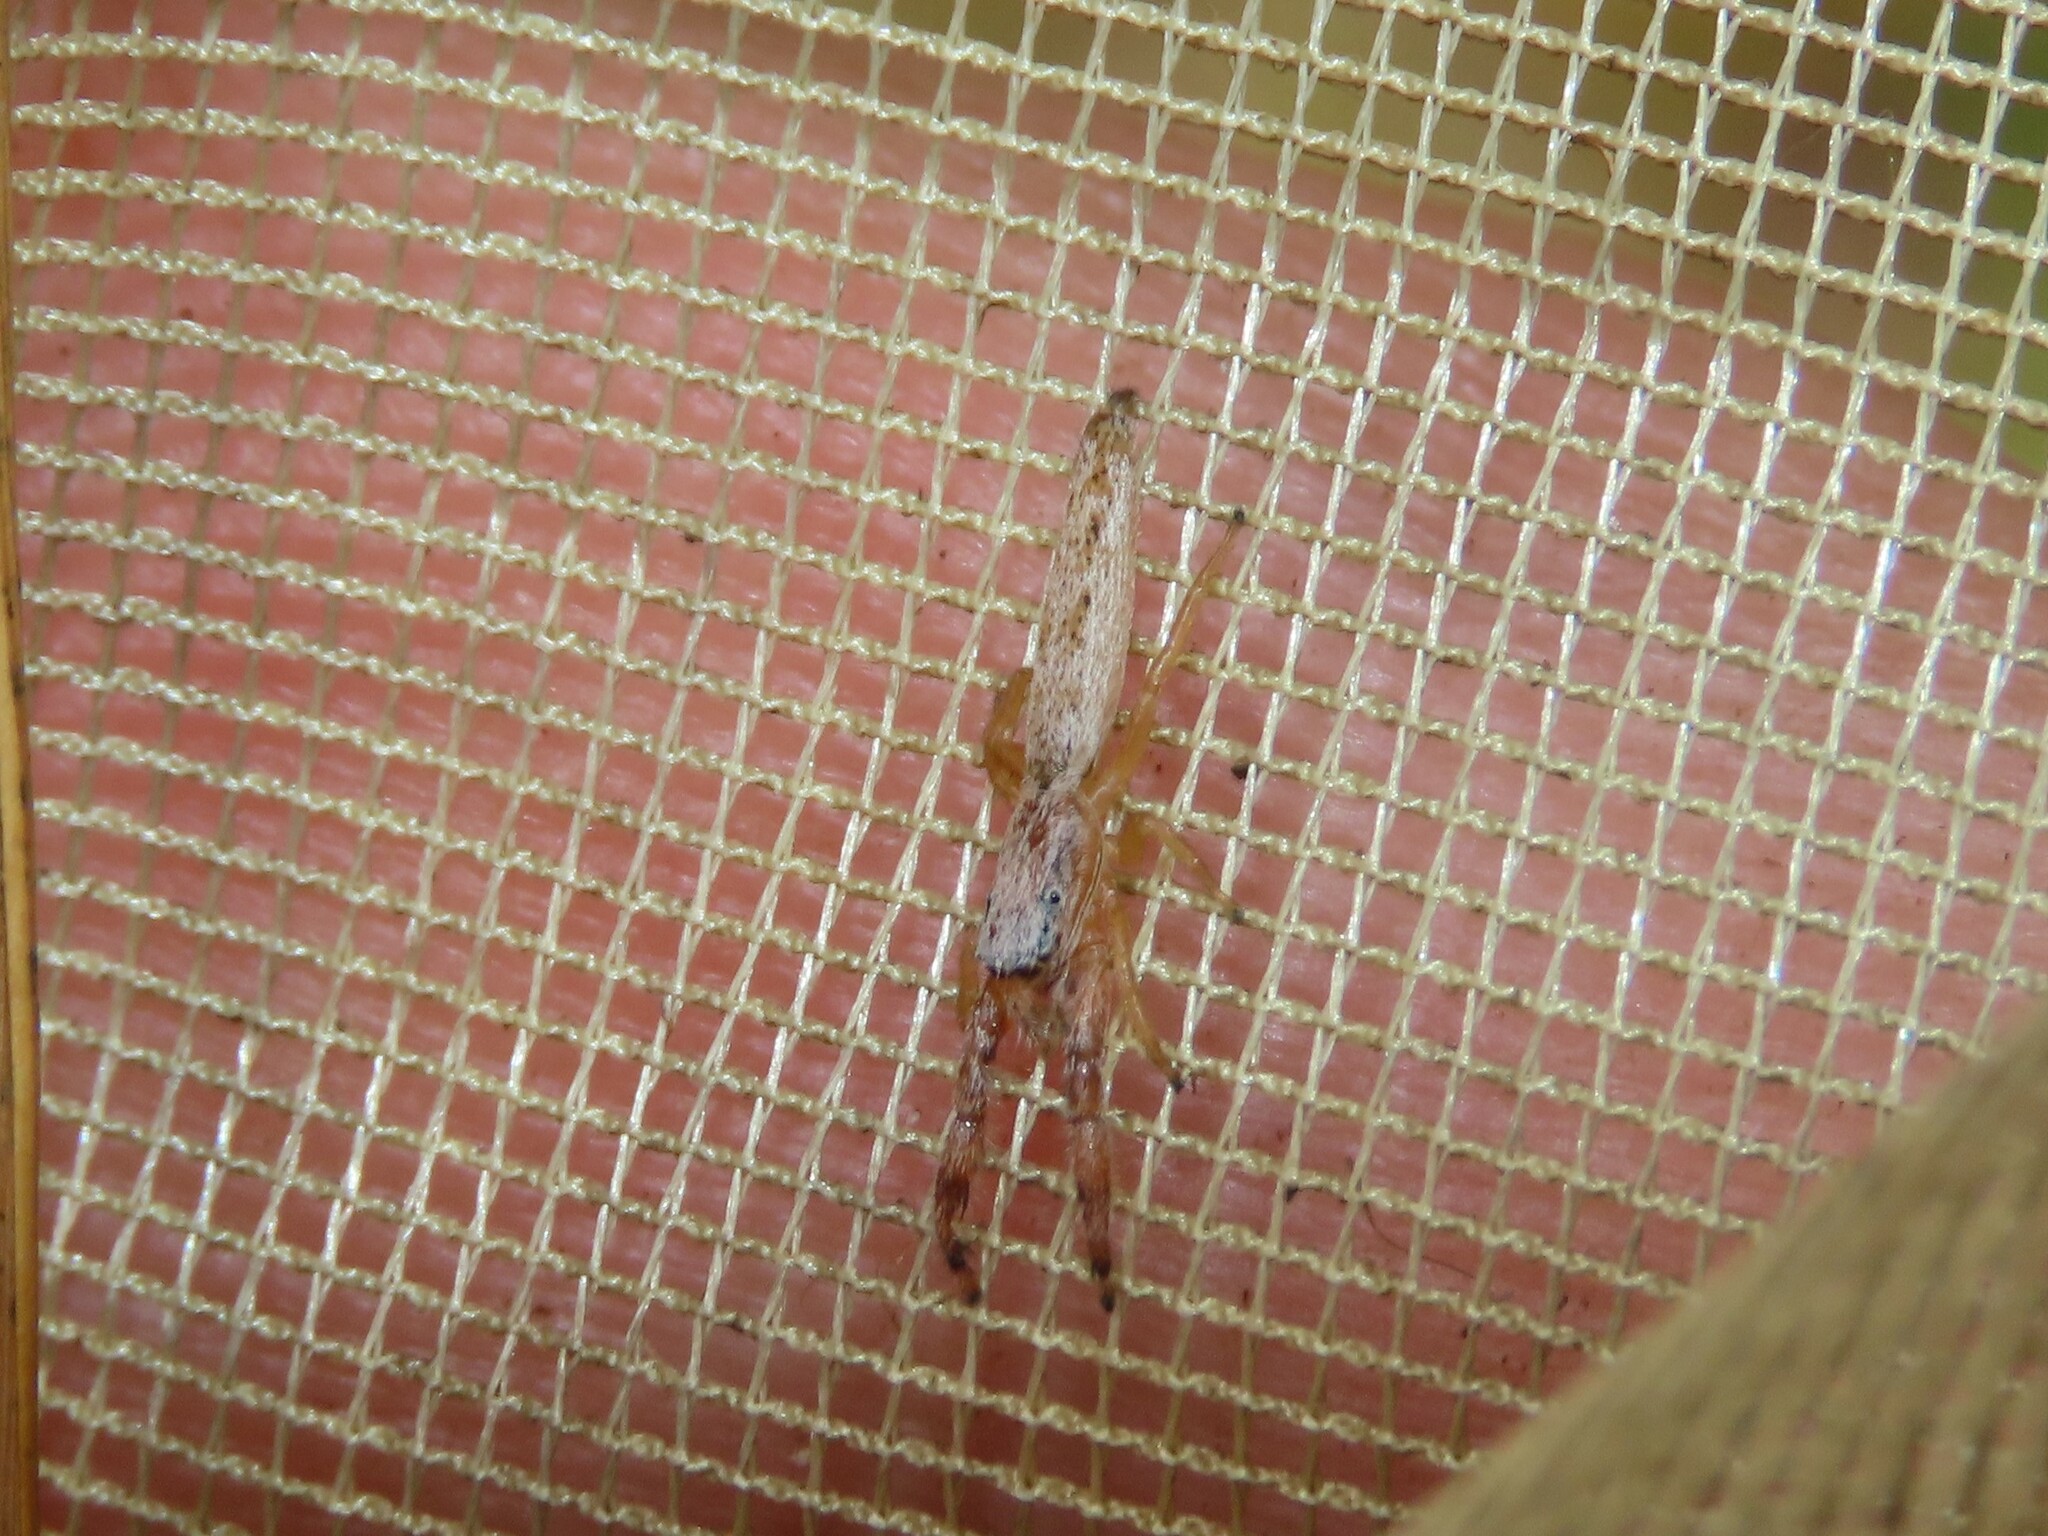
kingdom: Animalia
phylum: Arthropoda
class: Arachnida
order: Araneae
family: Salticidae
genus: Marpissa
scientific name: Marpissa pikei
